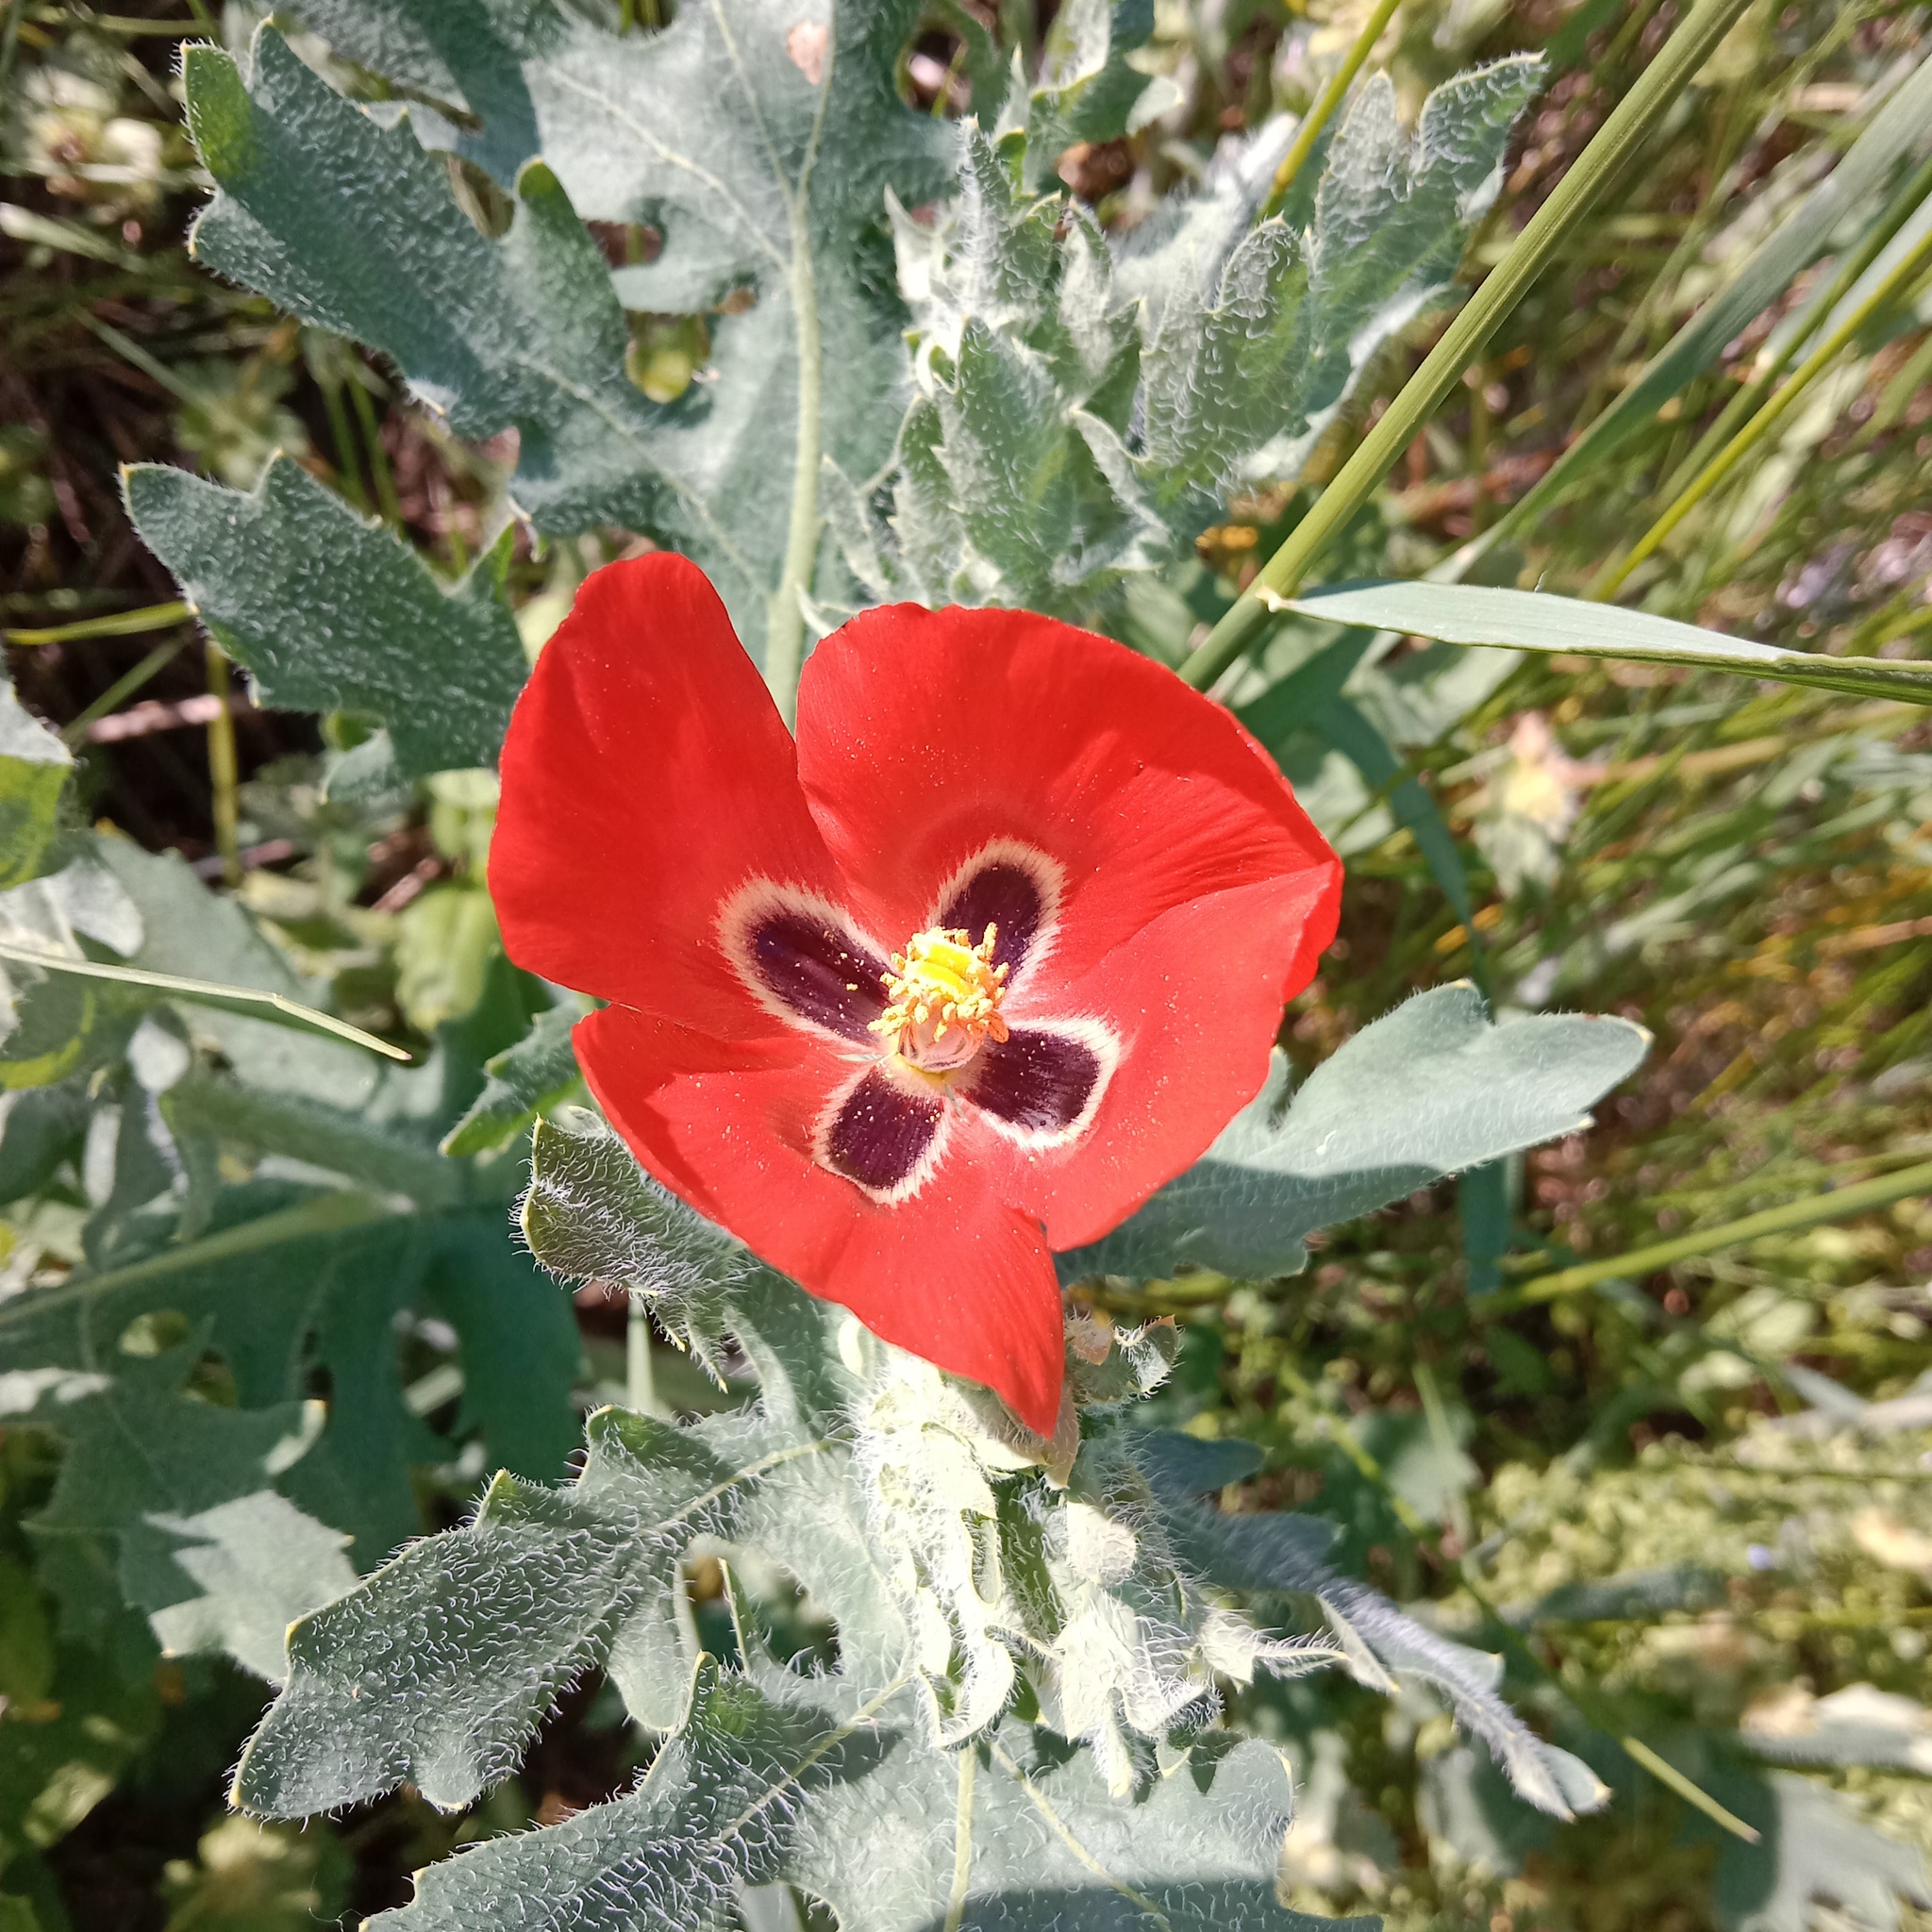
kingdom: Plantae
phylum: Tracheophyta
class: Magnoliopsida
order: Ranunculales
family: Papaveraceae
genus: Glaucium
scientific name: Glaucium corniculatum
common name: Red horned-poppy
